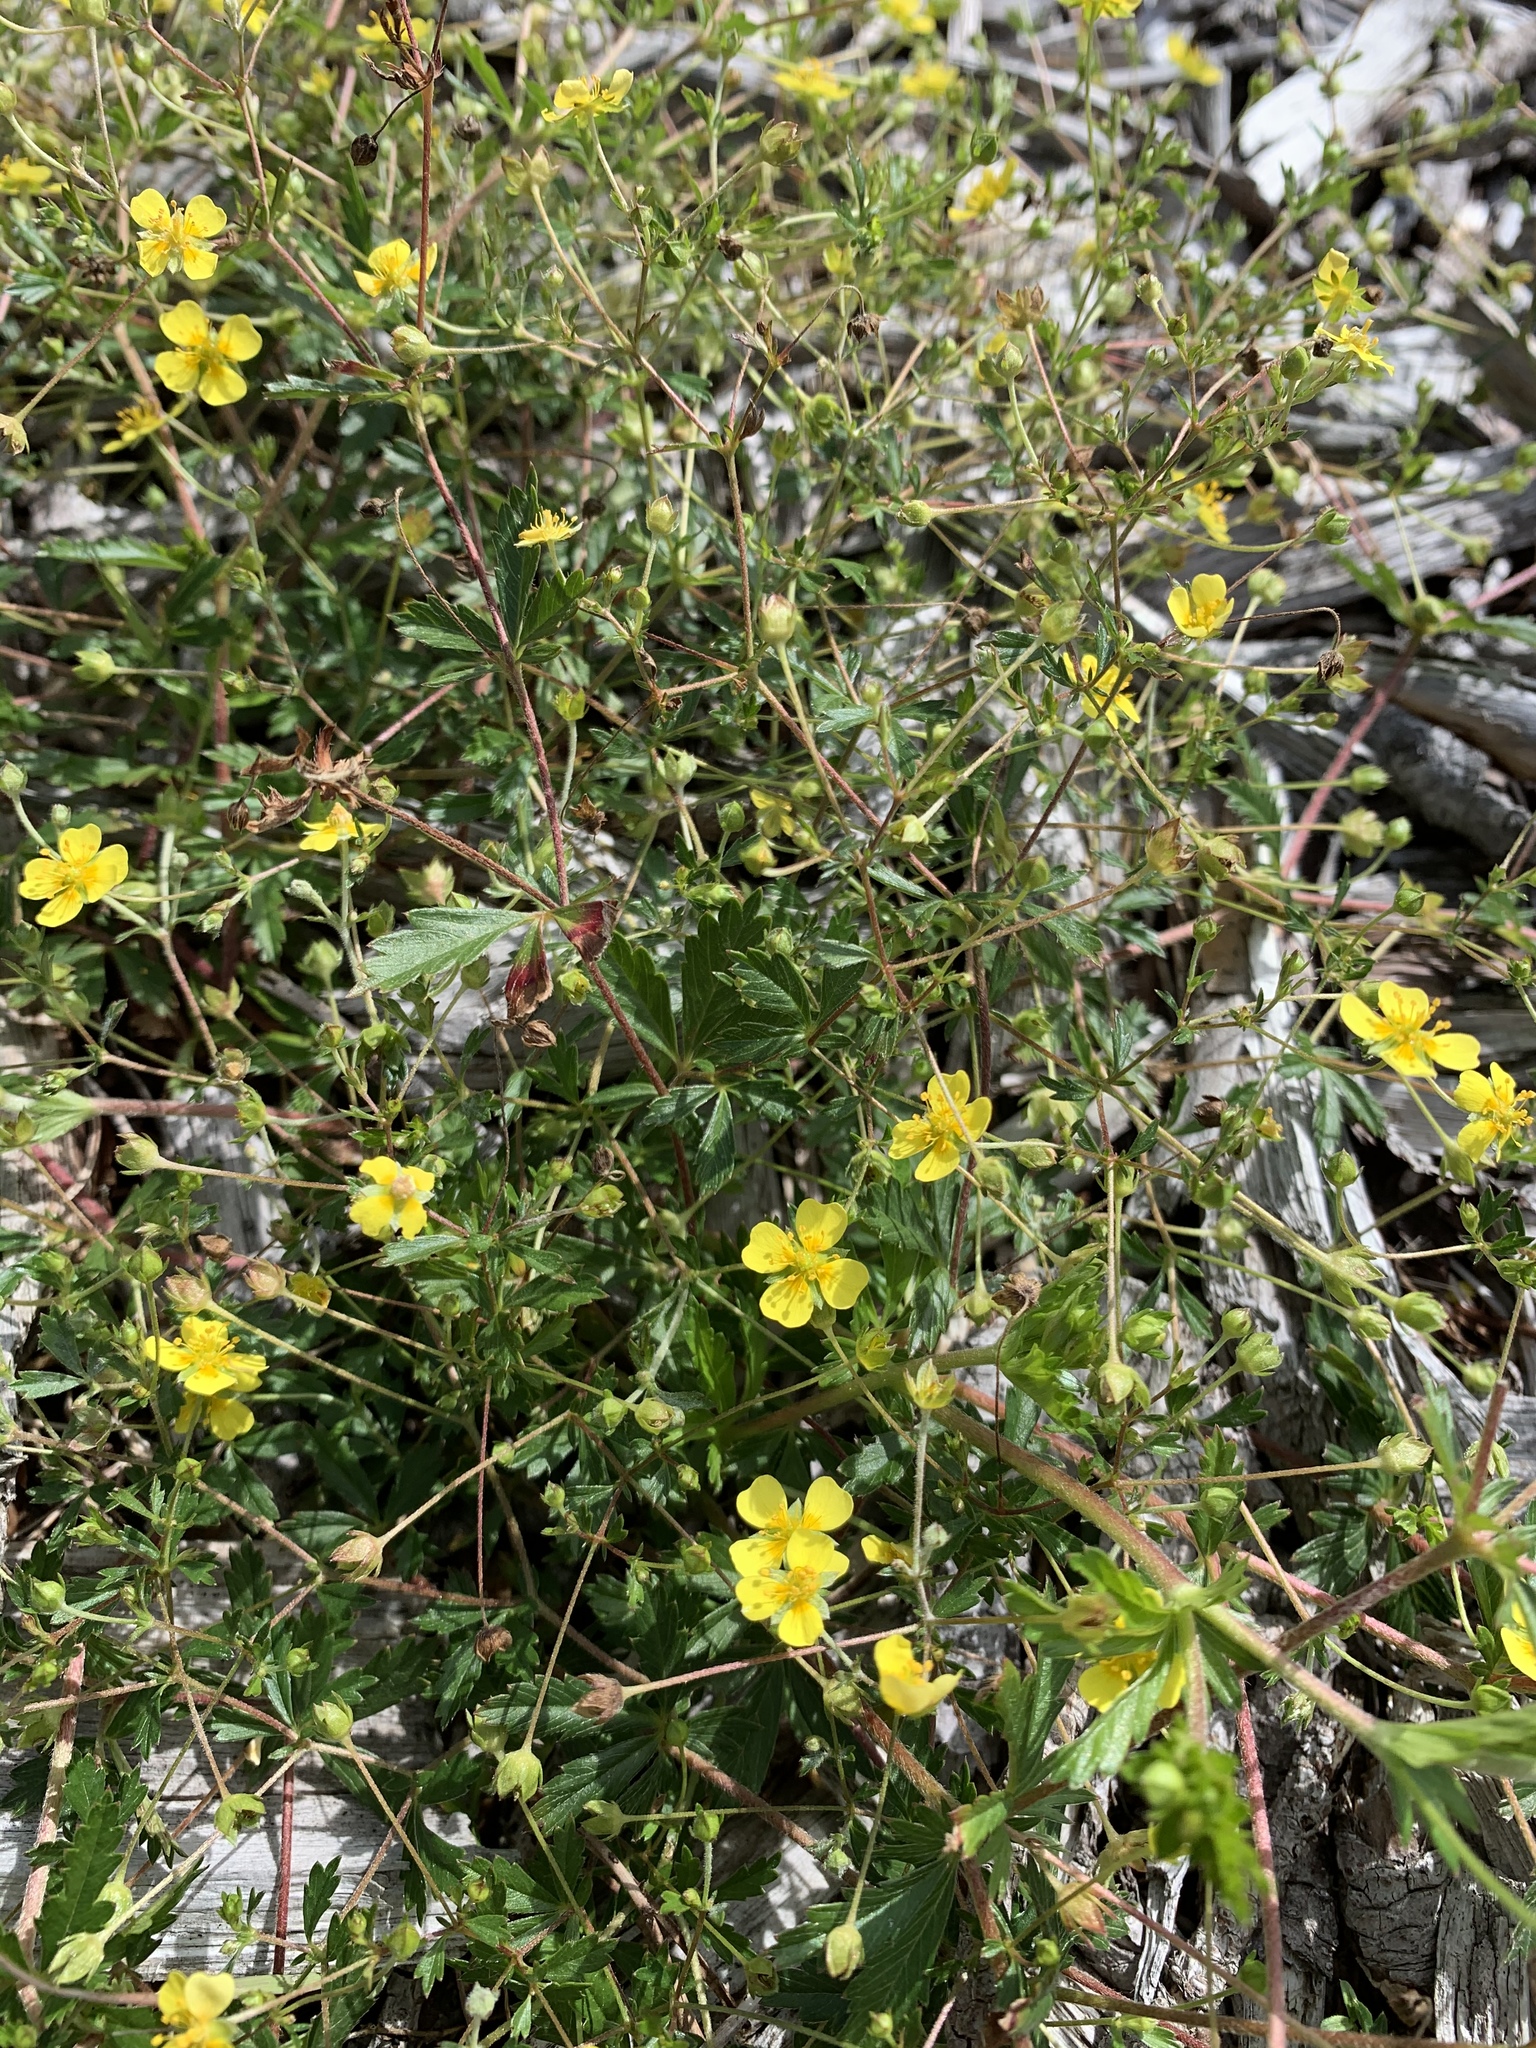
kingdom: Plantae
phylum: Tracheophyta
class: Magnoliopsida
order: Rosales
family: Rosaceae
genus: Potentilla
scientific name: Potentilla erecta
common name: Tormentil
